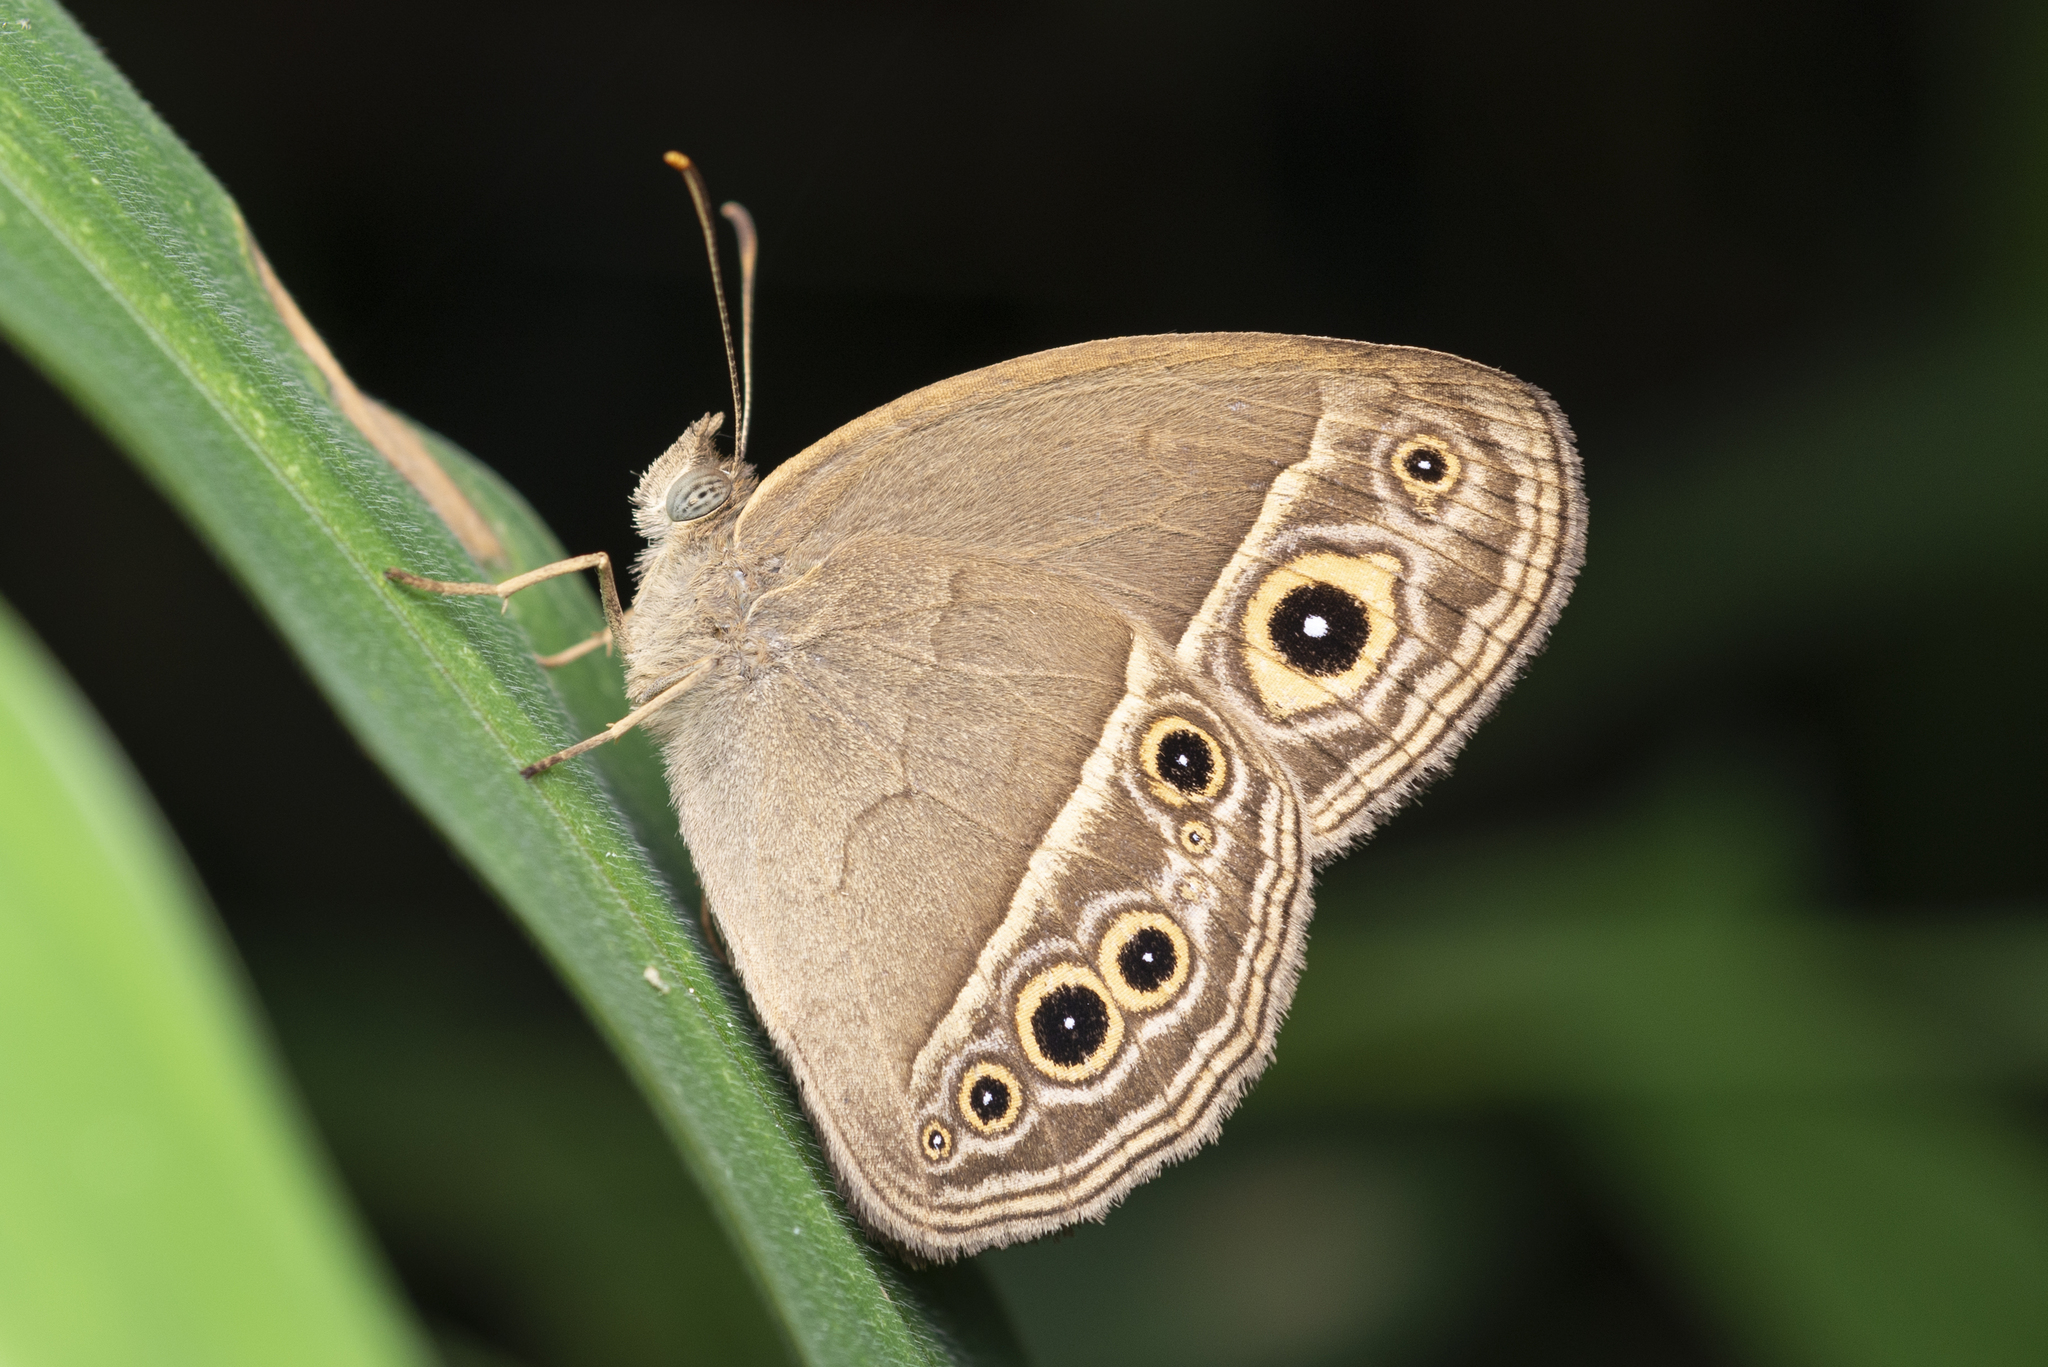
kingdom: Animalia
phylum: Arthropoda
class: Insecta
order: Lepidoptera
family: Nymphalidae
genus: Mycalesis
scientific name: Mycalesis mineus
